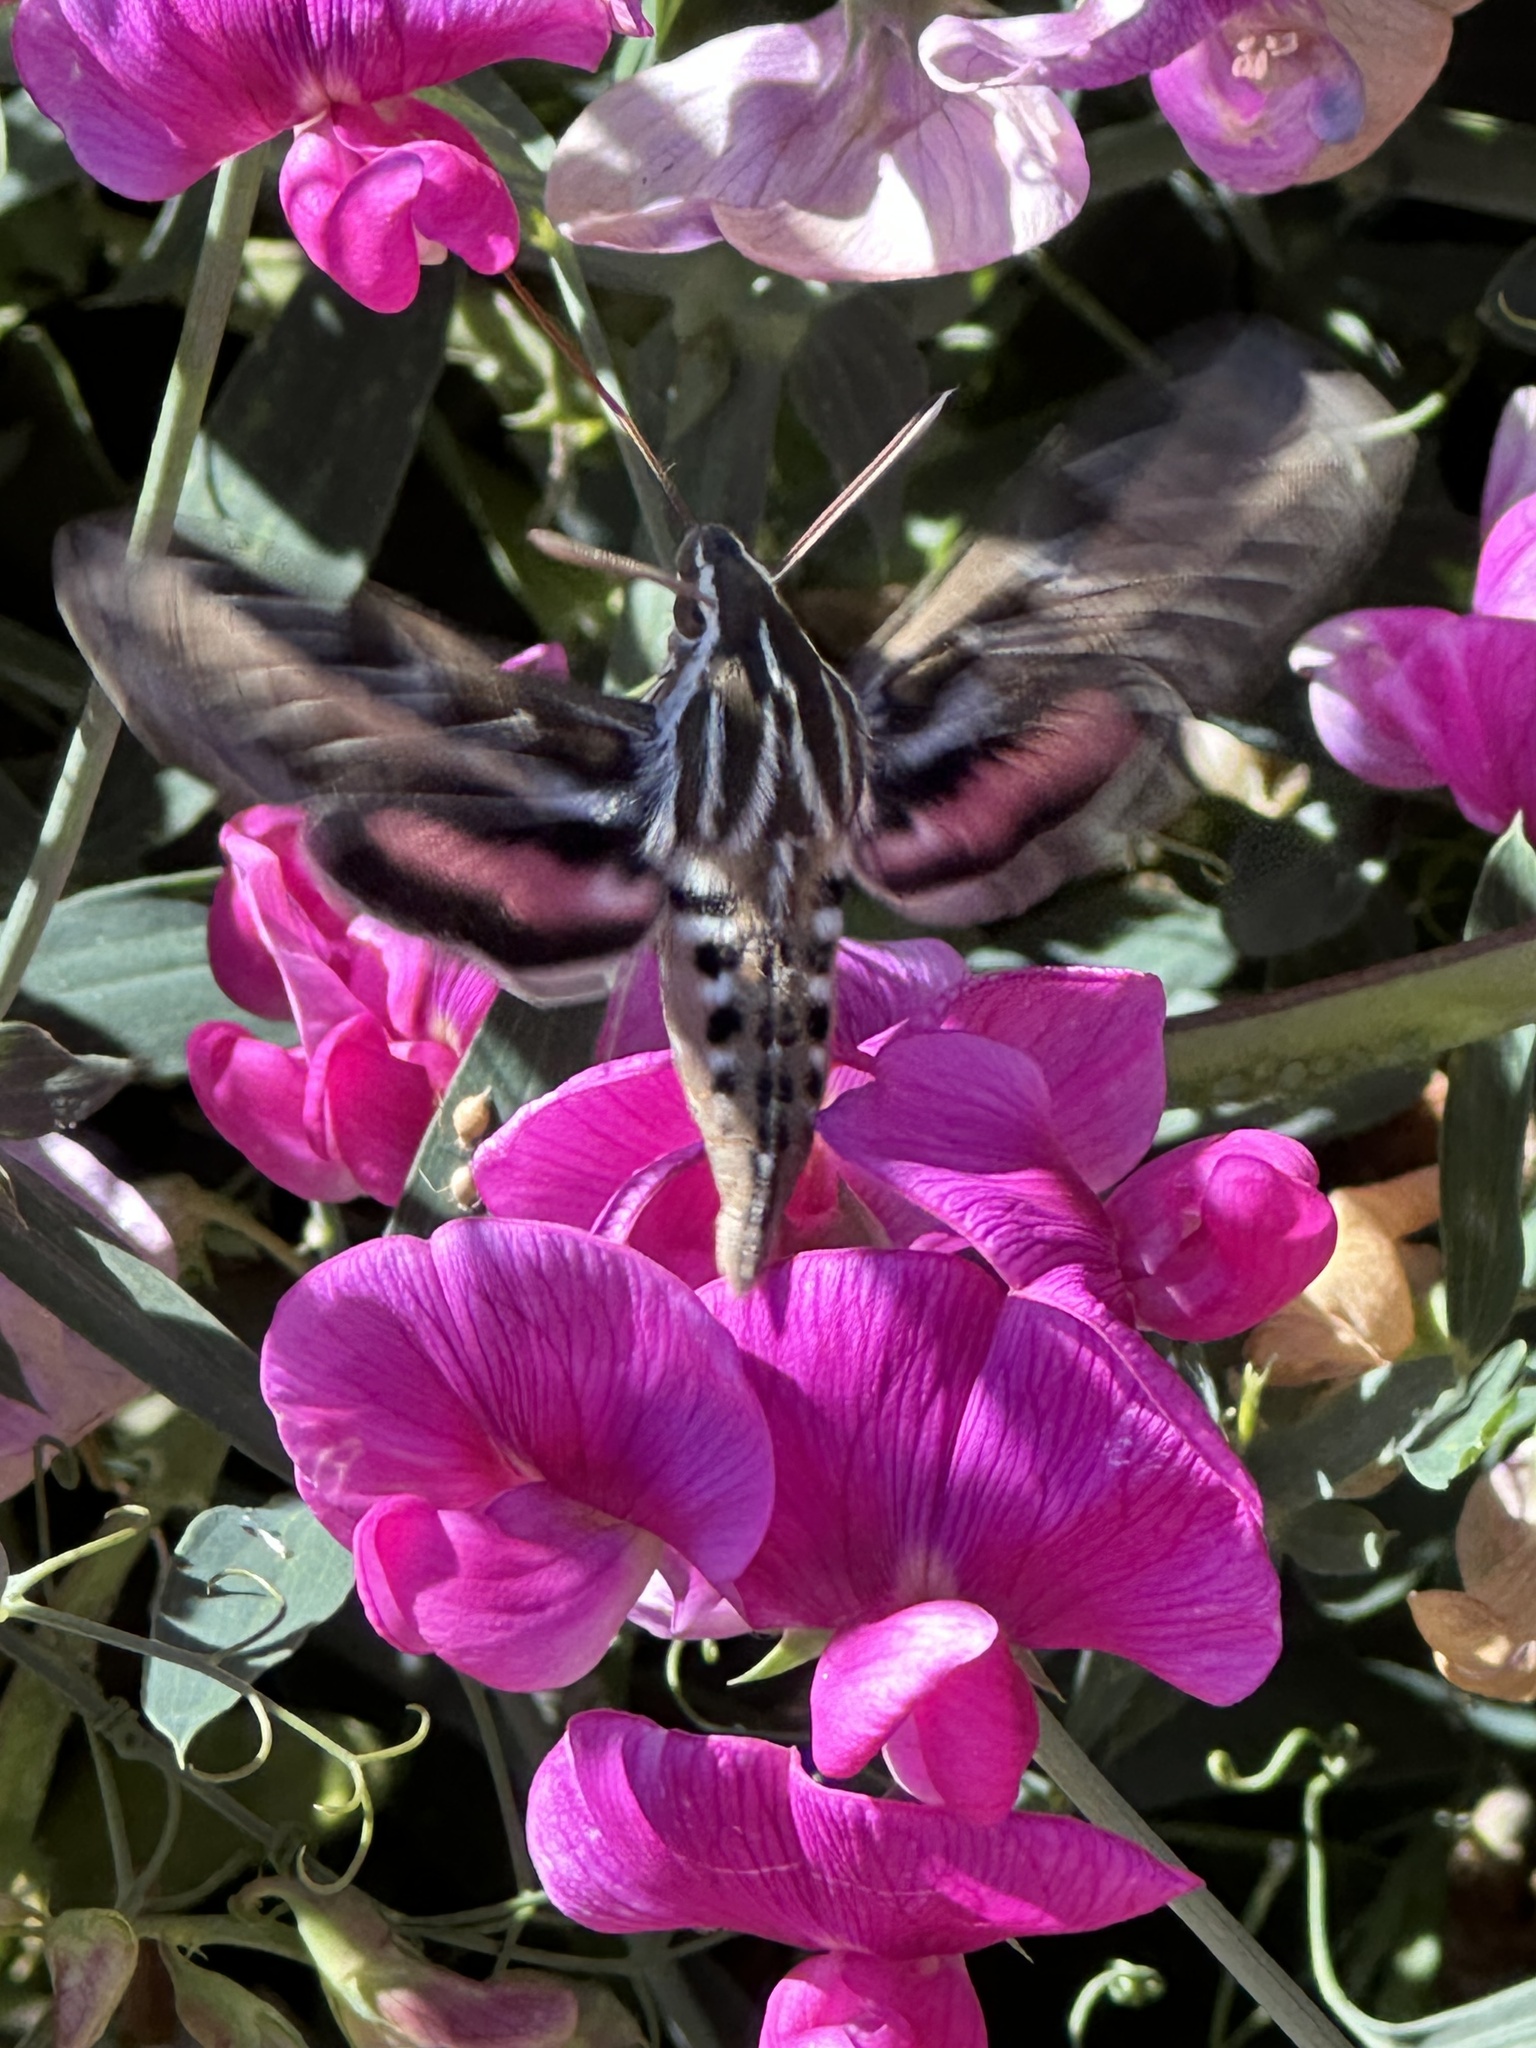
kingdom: Animalia
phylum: Arthropoda
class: Insecta
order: Lepidoptera
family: Sphingidae
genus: Hyles
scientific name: Hyles lineata
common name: White-lined sphinx
